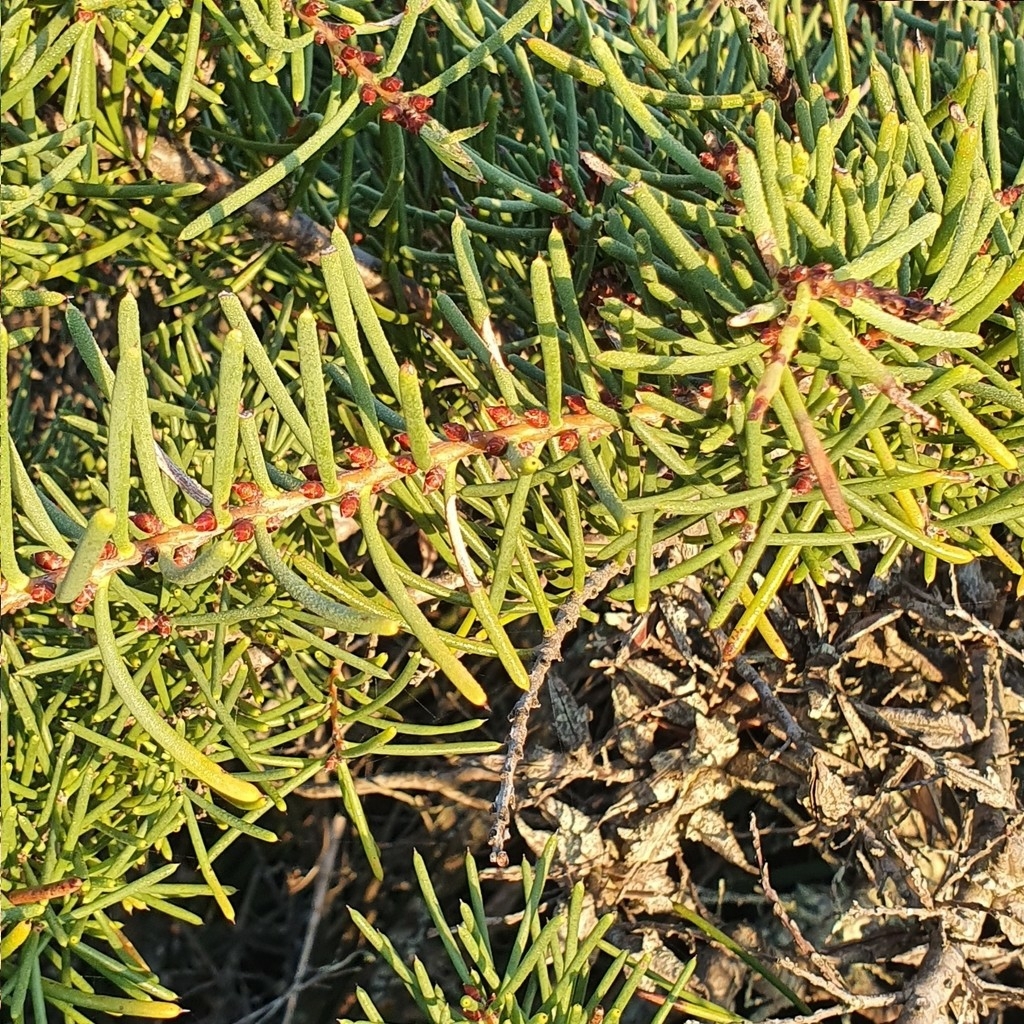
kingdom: Plantae
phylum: Tracheophyta
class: Magnoliopsida
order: Proteales
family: Proteaceae
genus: Hakea
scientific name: Hakea teretifolia
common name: Dagger hakea
